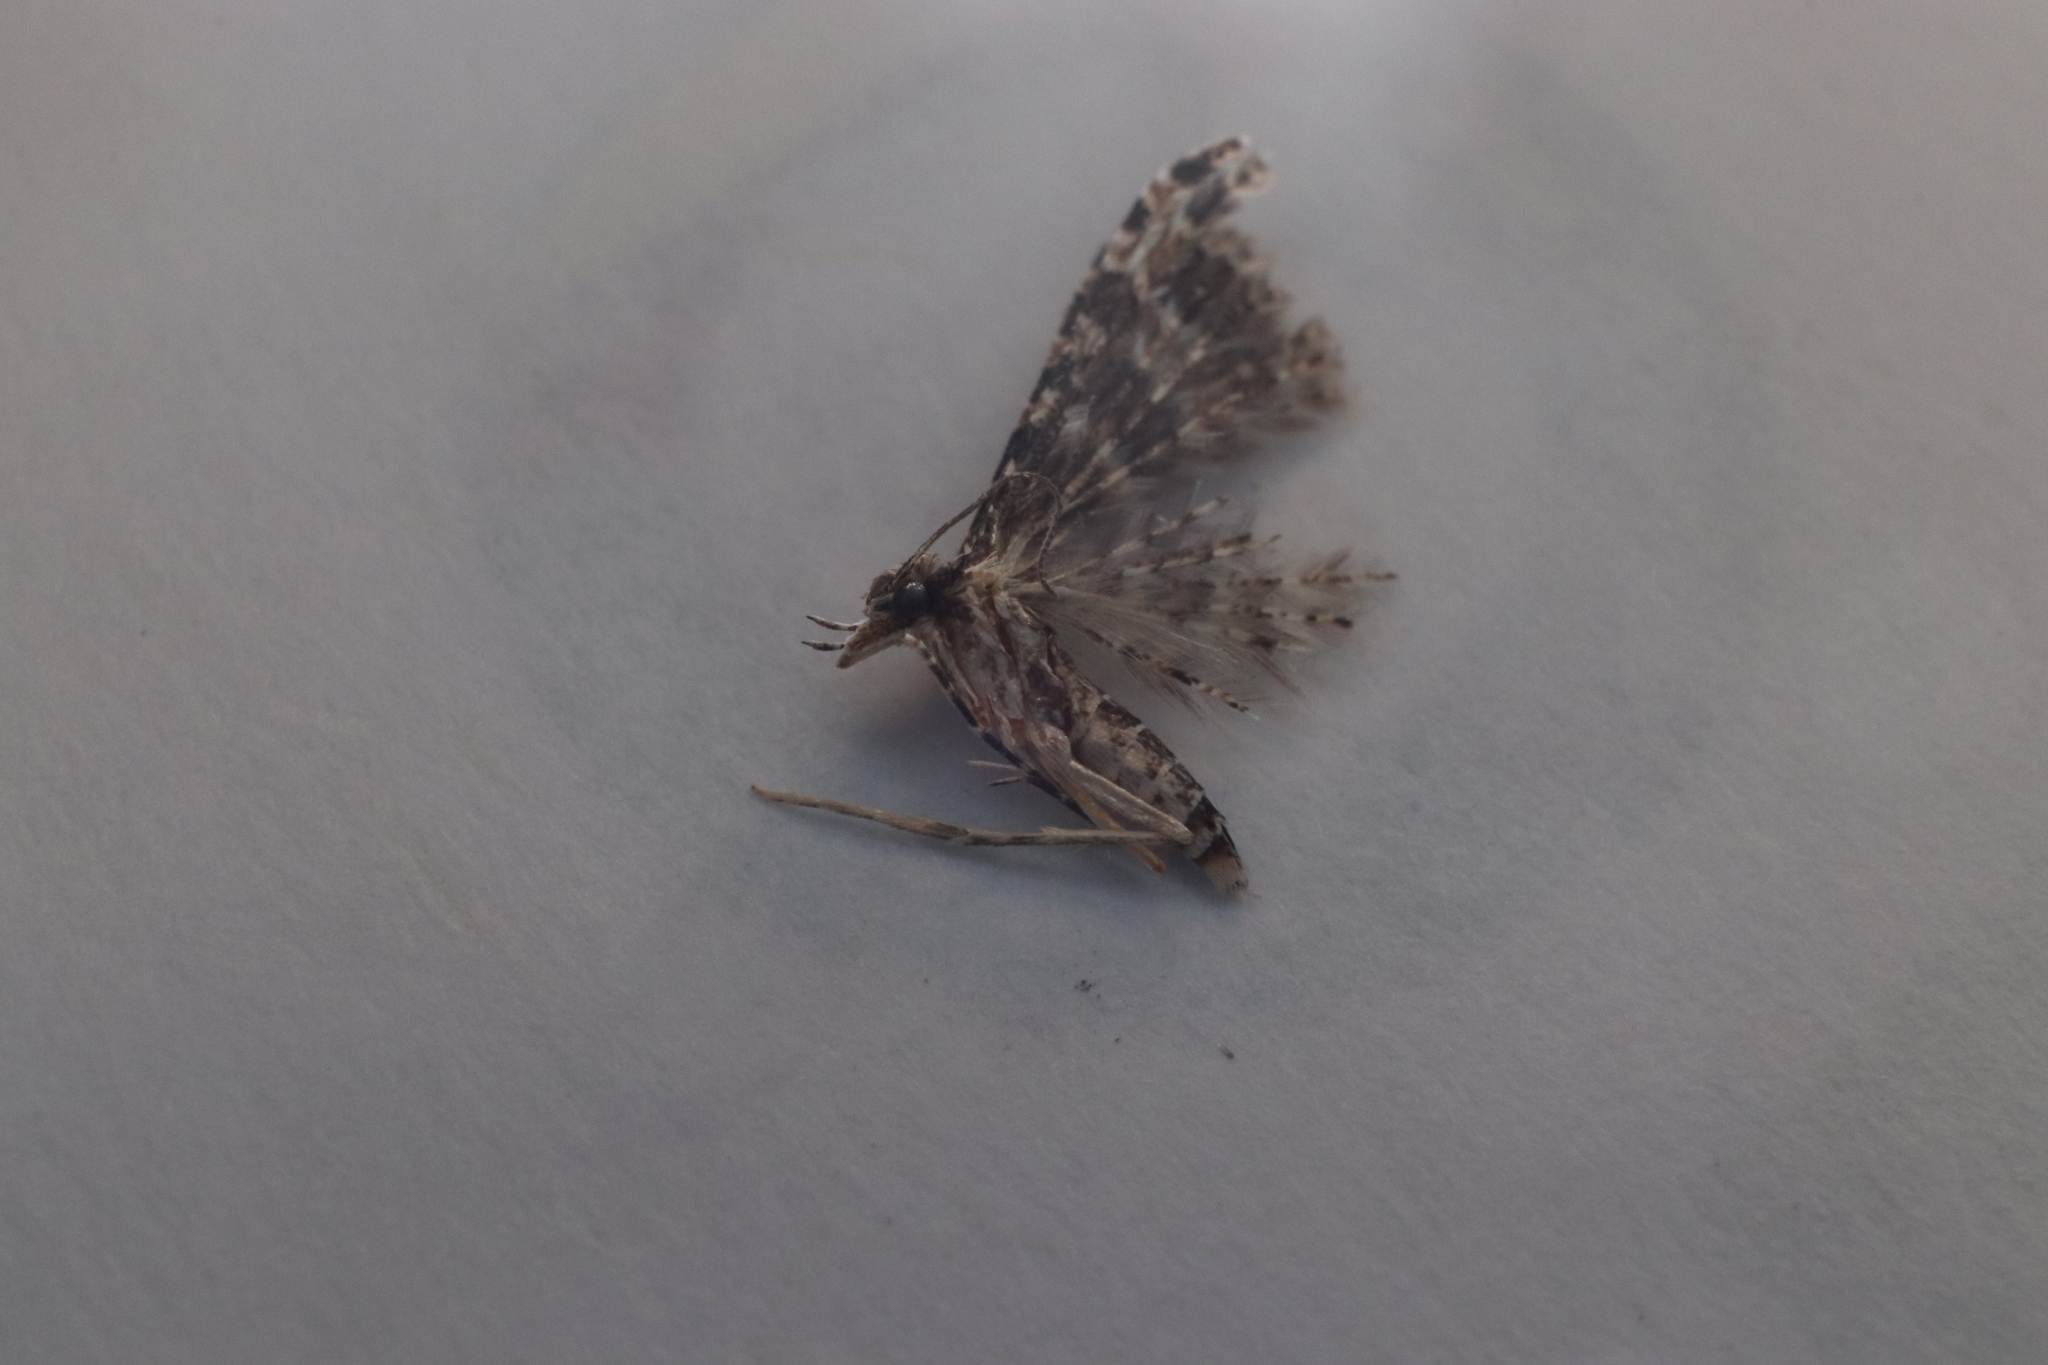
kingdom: Animalia
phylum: Arthropoda
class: Insecta
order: Lepidoptera
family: Alucitidae
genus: Alucita
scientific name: Alucita montana
